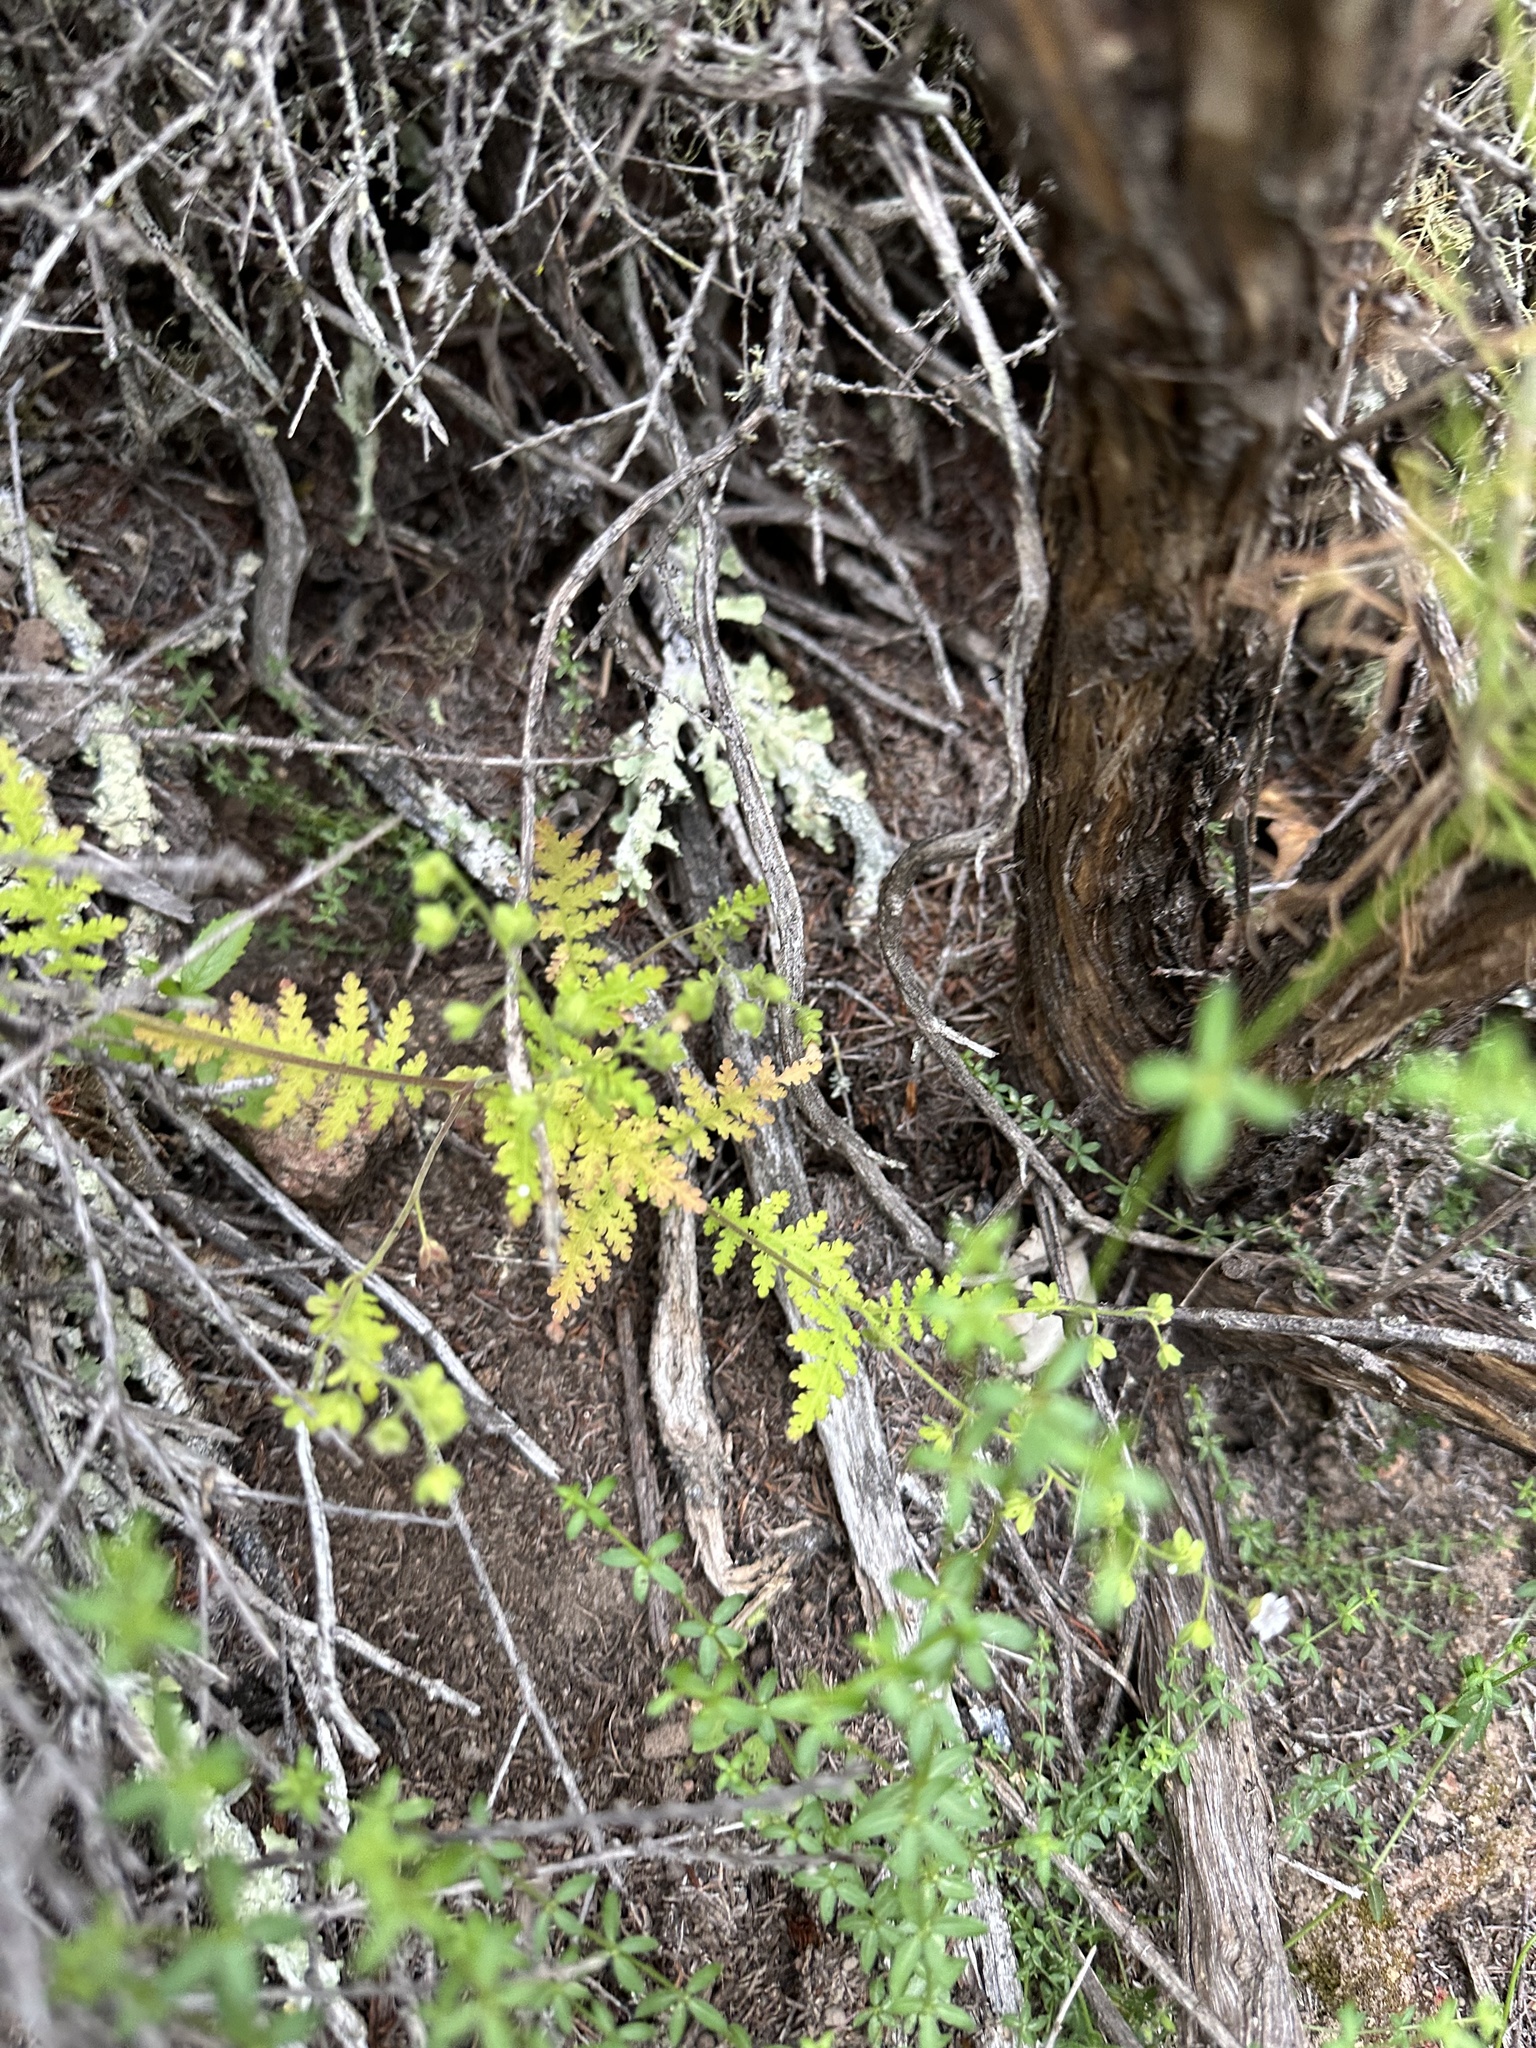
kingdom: Plantae
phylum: Tracheophyta
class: Magnoliopsida
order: Boraginales
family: Hydrophyllaceae
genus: Eucrypta
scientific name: Eucrypta chrysanthemifolia
